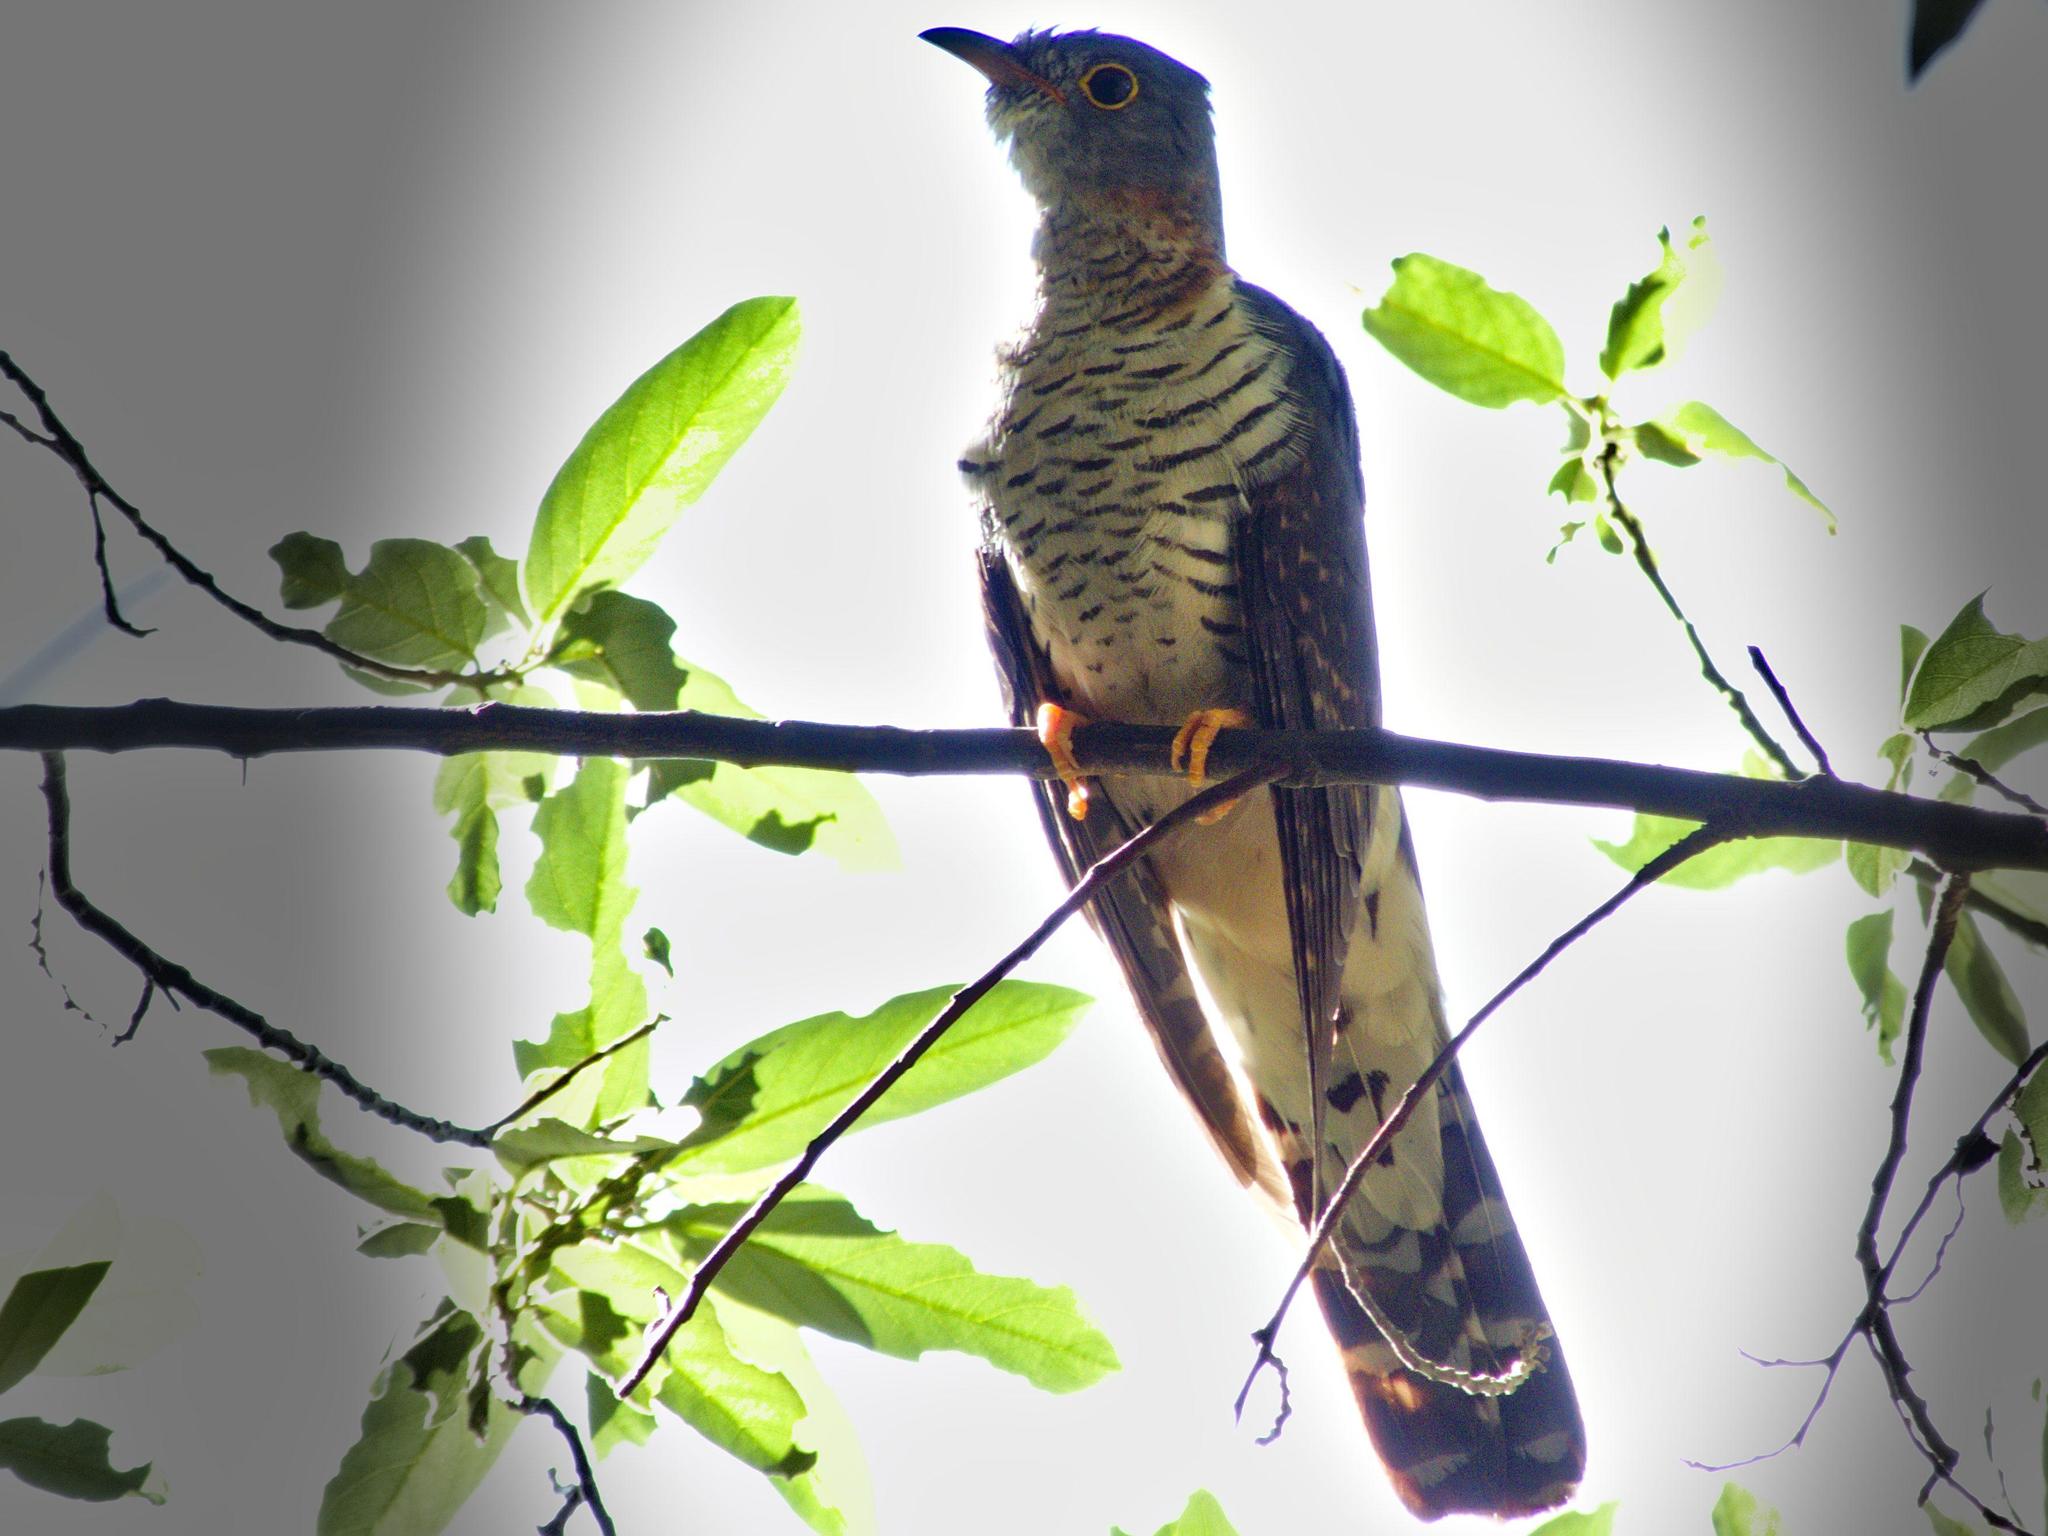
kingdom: Animalia
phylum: Chordata
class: Aves
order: Cuculiformes
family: Cuculidae
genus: Cuculus
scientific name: Cuculus solitarius
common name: Red-chested cuckoo
